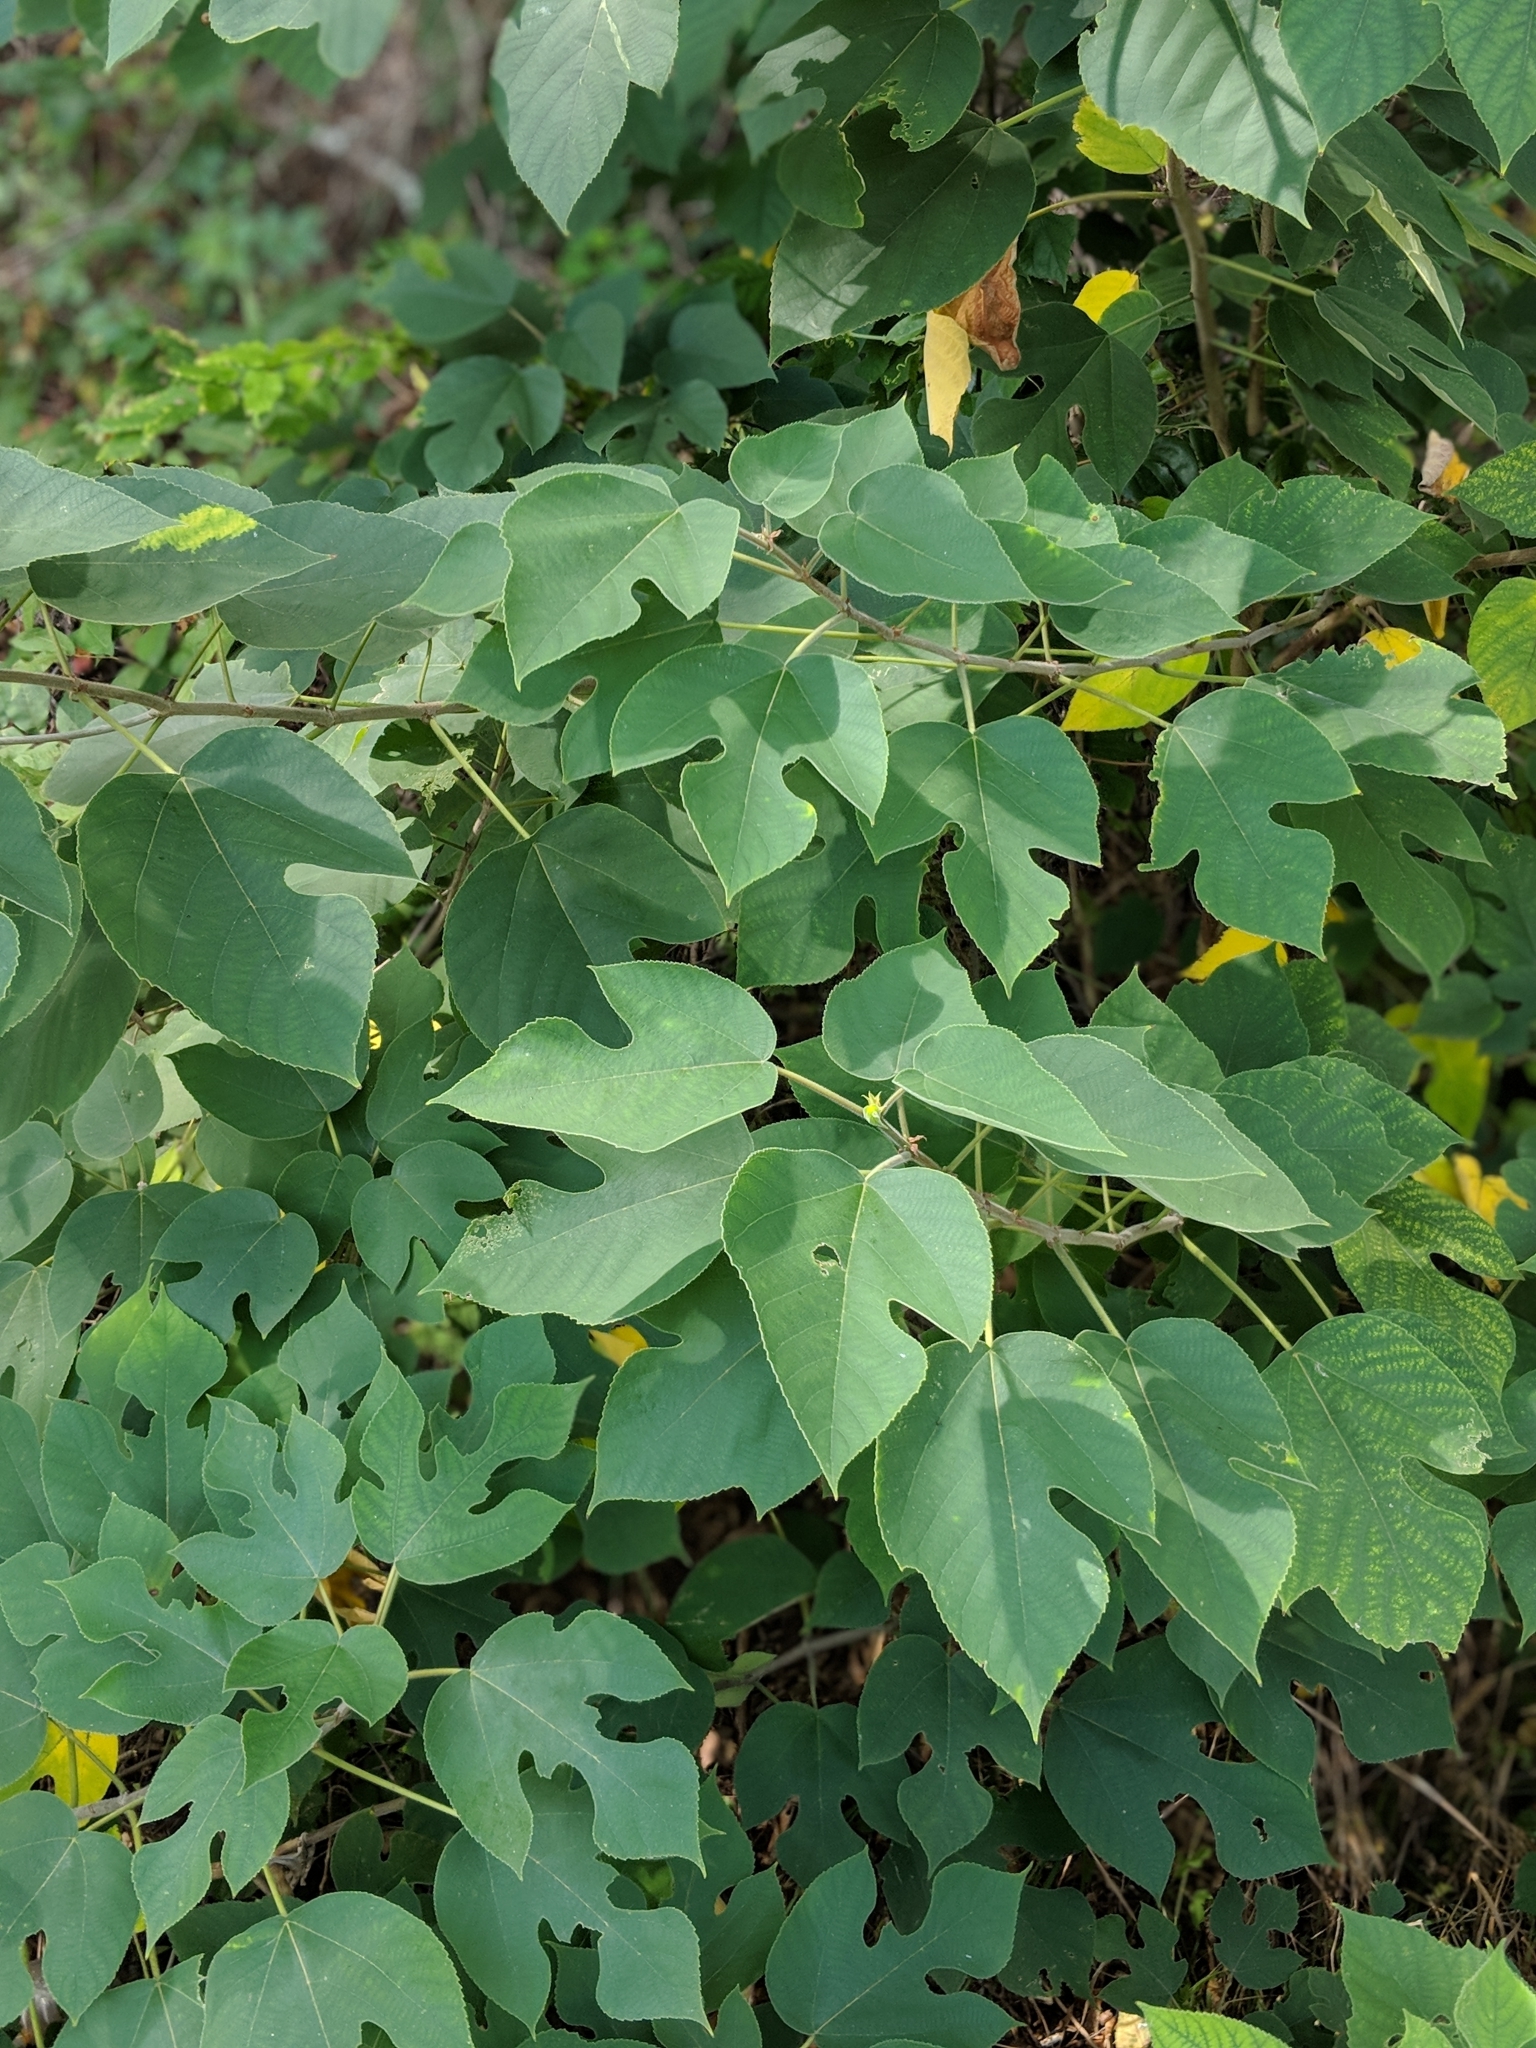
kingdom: Plantae
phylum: Tracheophyta
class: Magnoliopsida
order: Rosales
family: Moraceae
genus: Broussonetia
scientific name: Broussonetia papyrifera
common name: Paper mulberry
